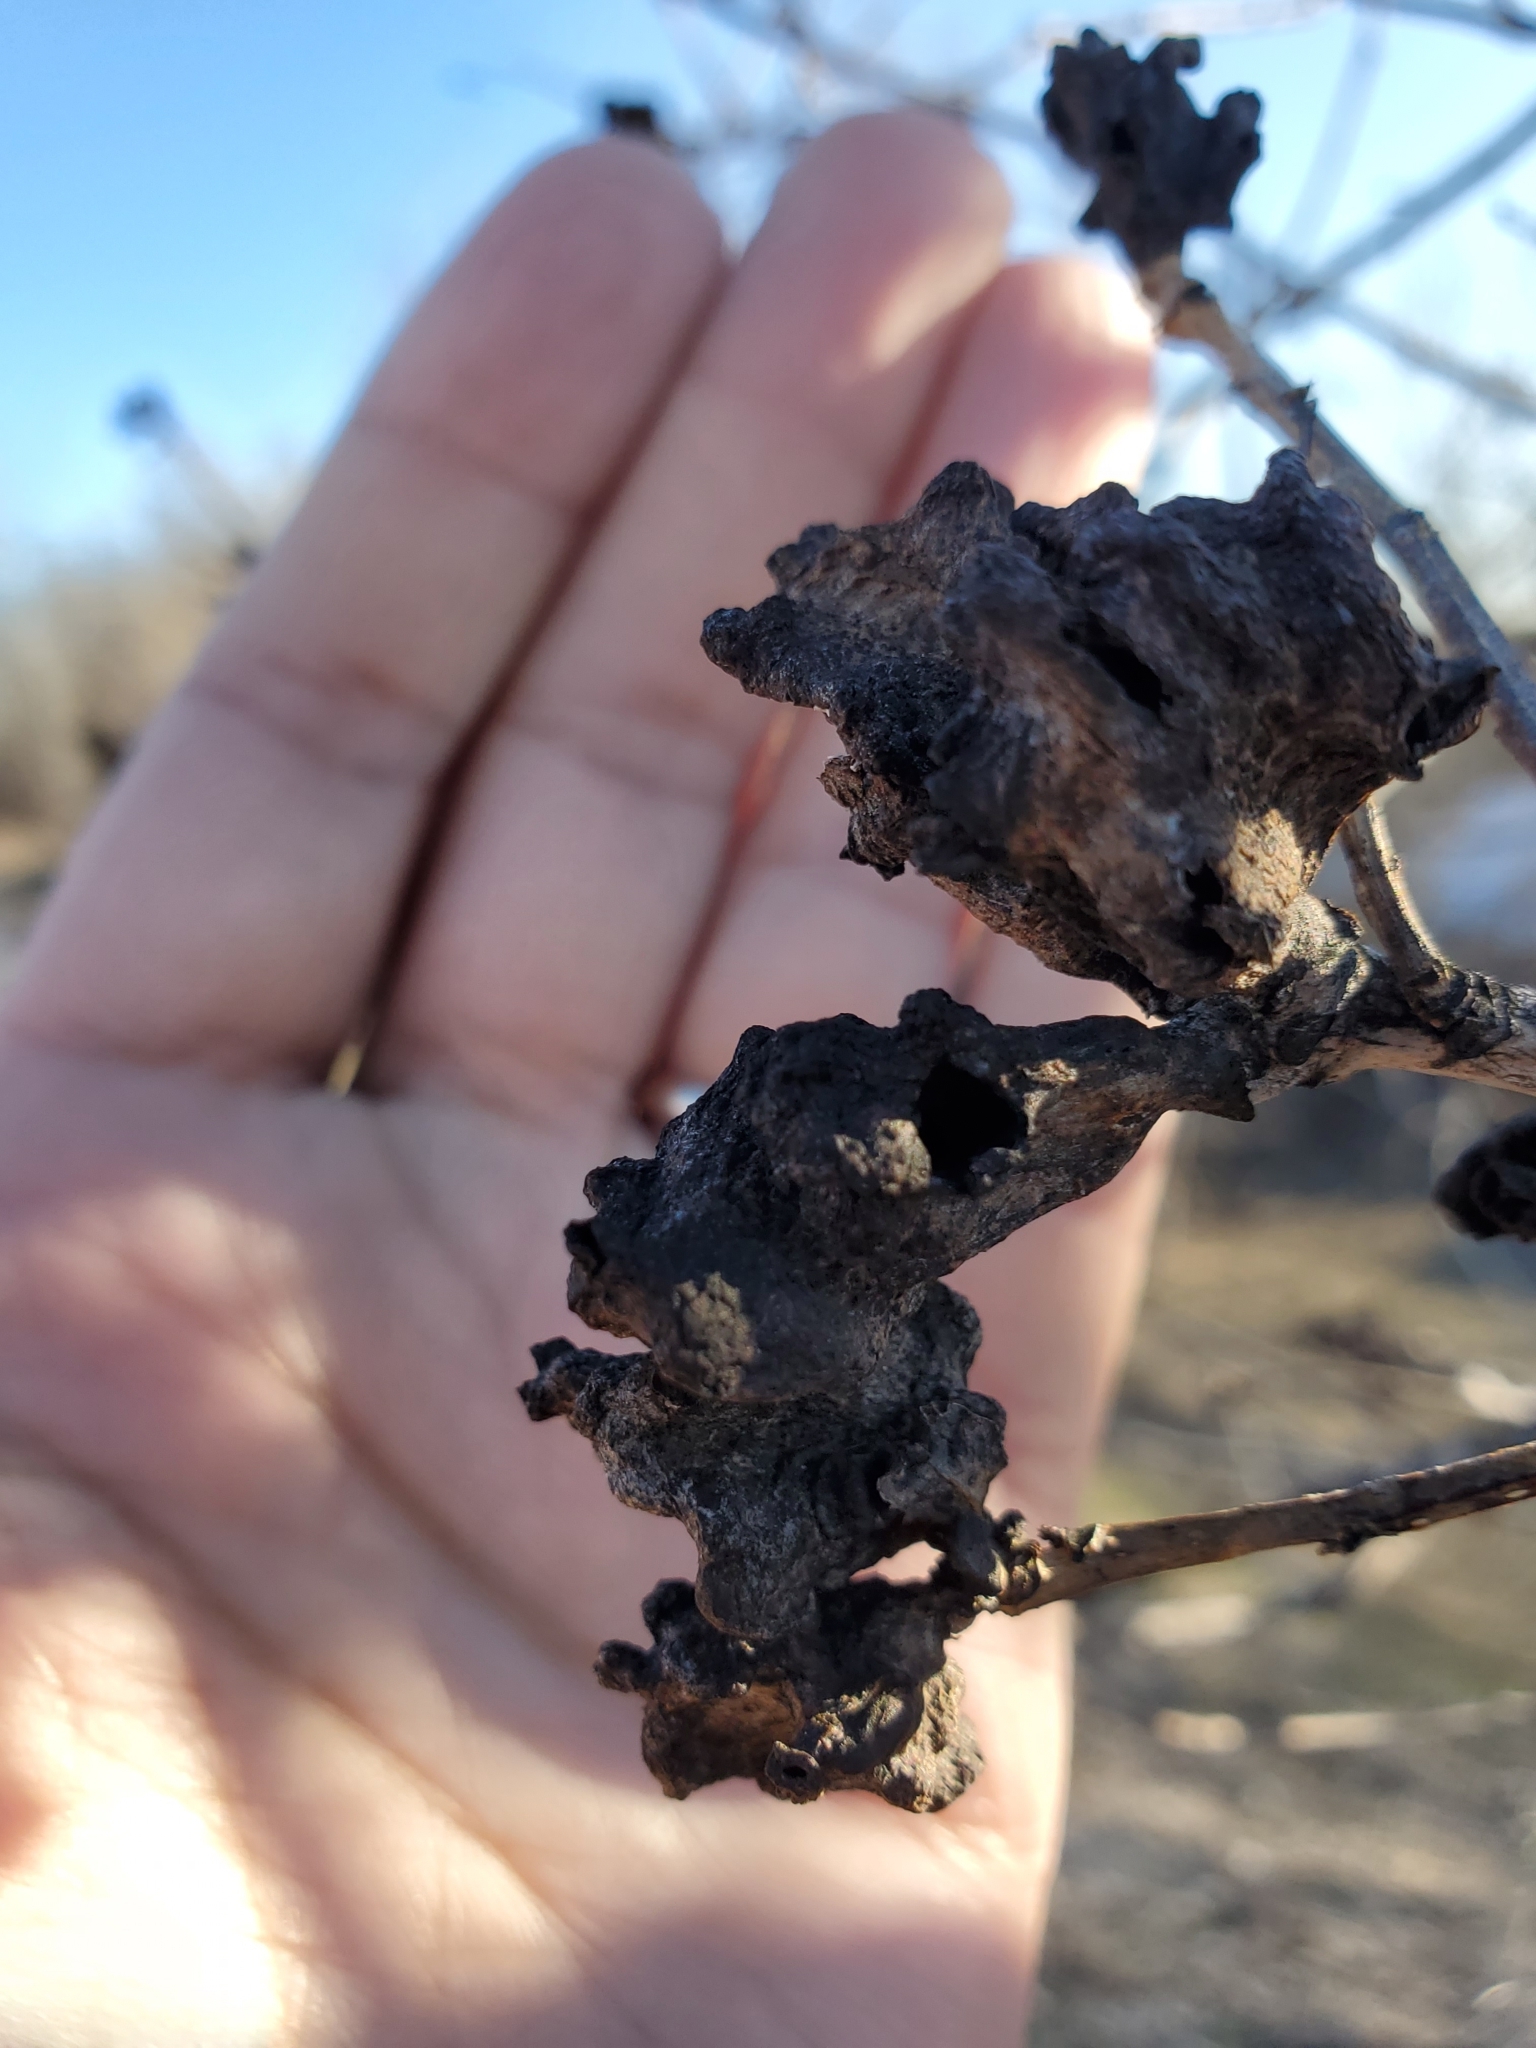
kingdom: Animalia
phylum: Arthropoda
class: Insecta
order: Hemiptera
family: Aphididae
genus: Mordwilkoja
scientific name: Mordwilkoja vagabunda
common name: Poplar vagabond aphid
